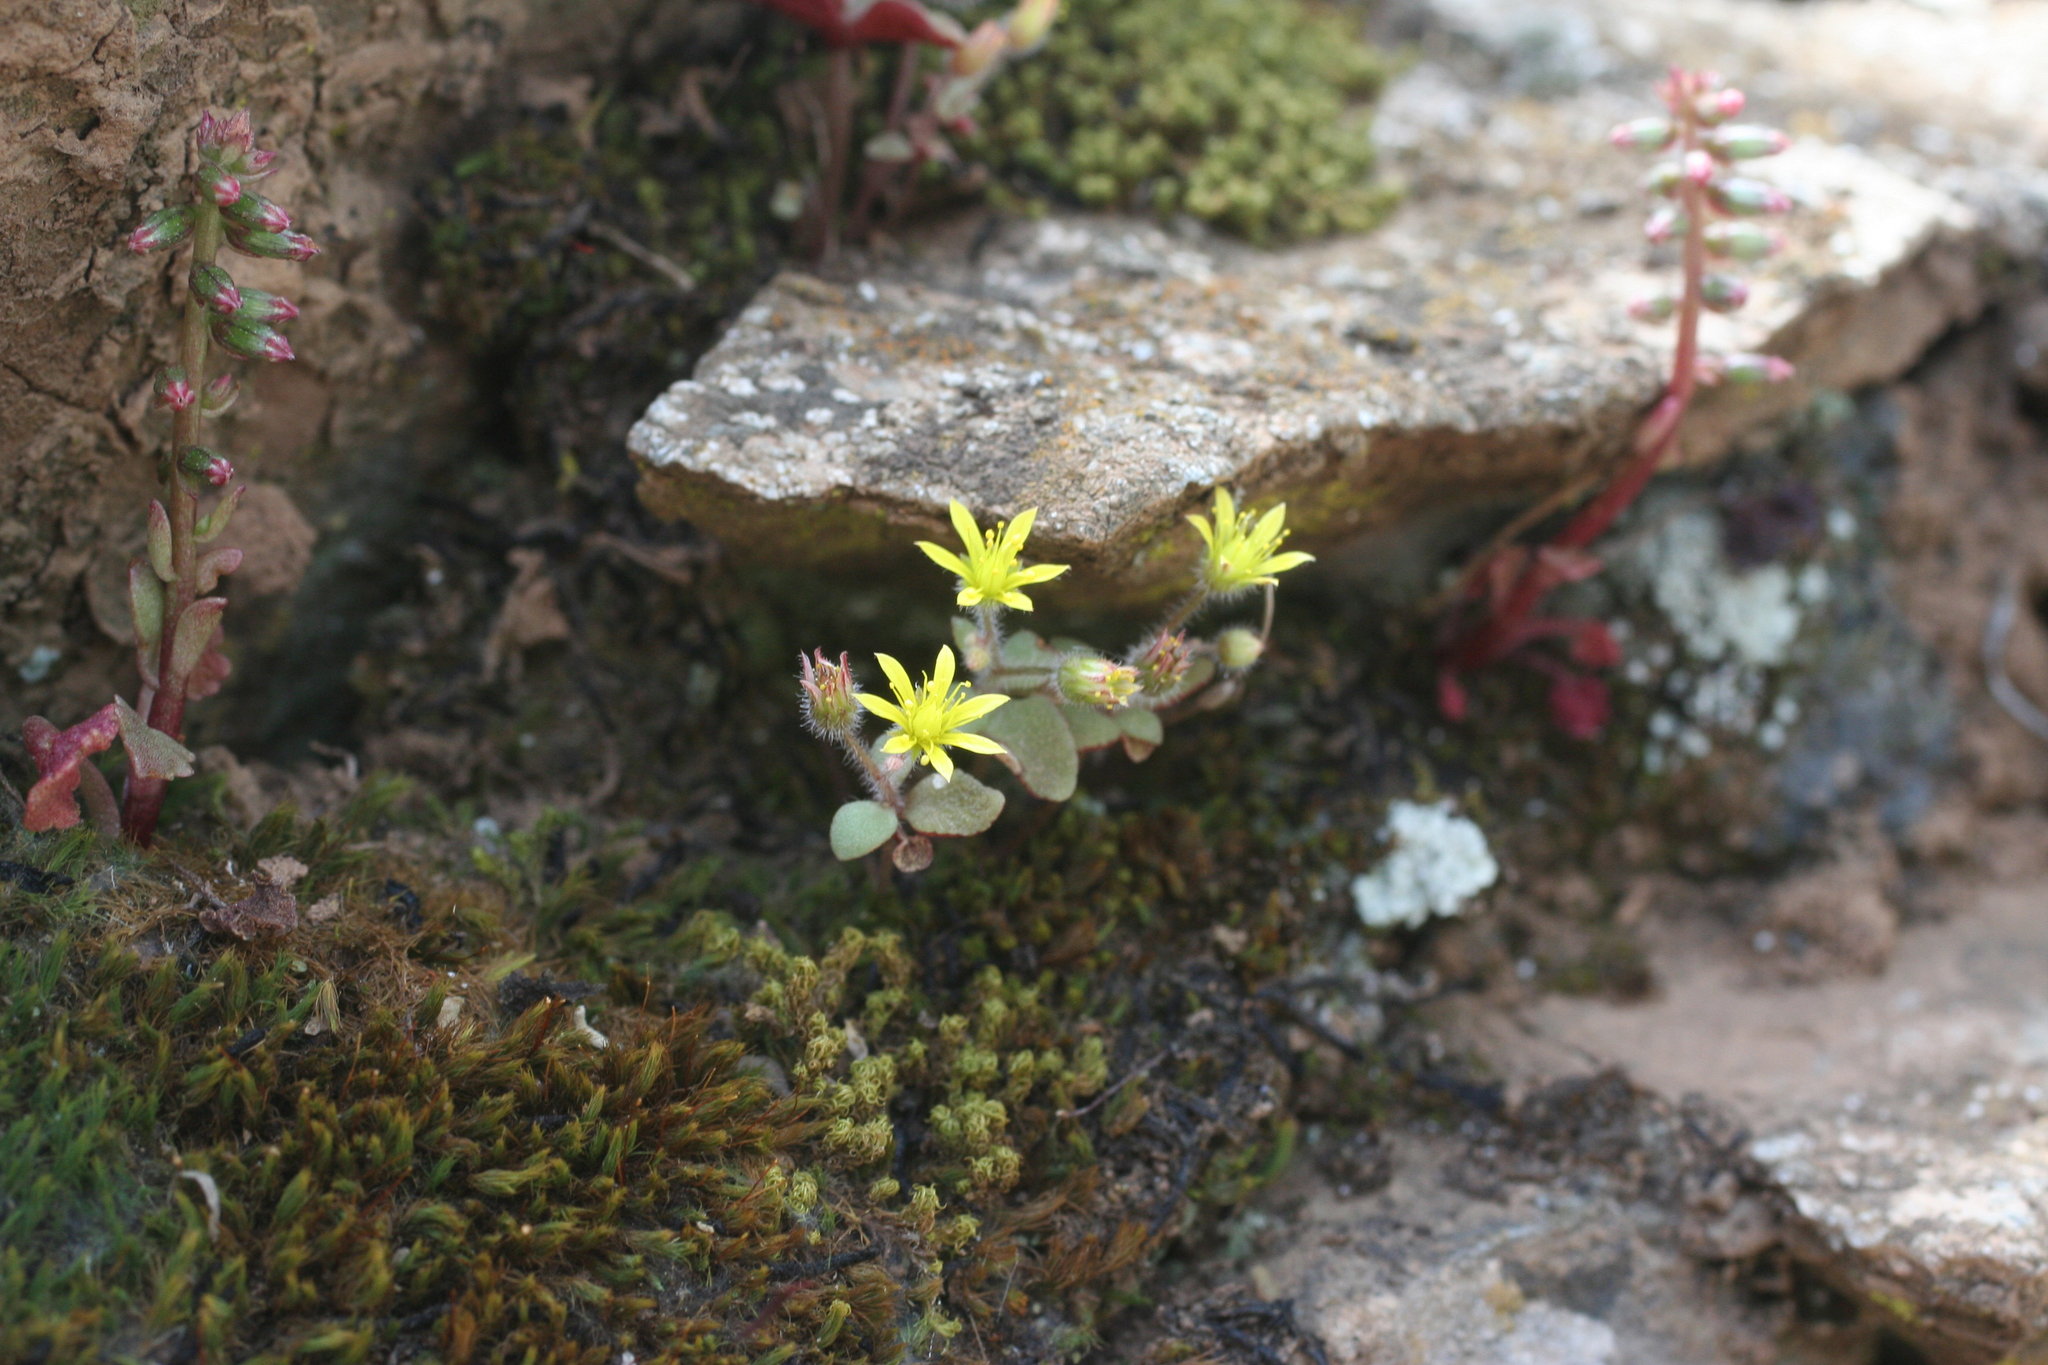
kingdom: Plantae
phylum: Tracheophyta
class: Magnoliopsida
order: Saxifragales
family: Crassulaceae
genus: Sedum
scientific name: Sedum modestum
